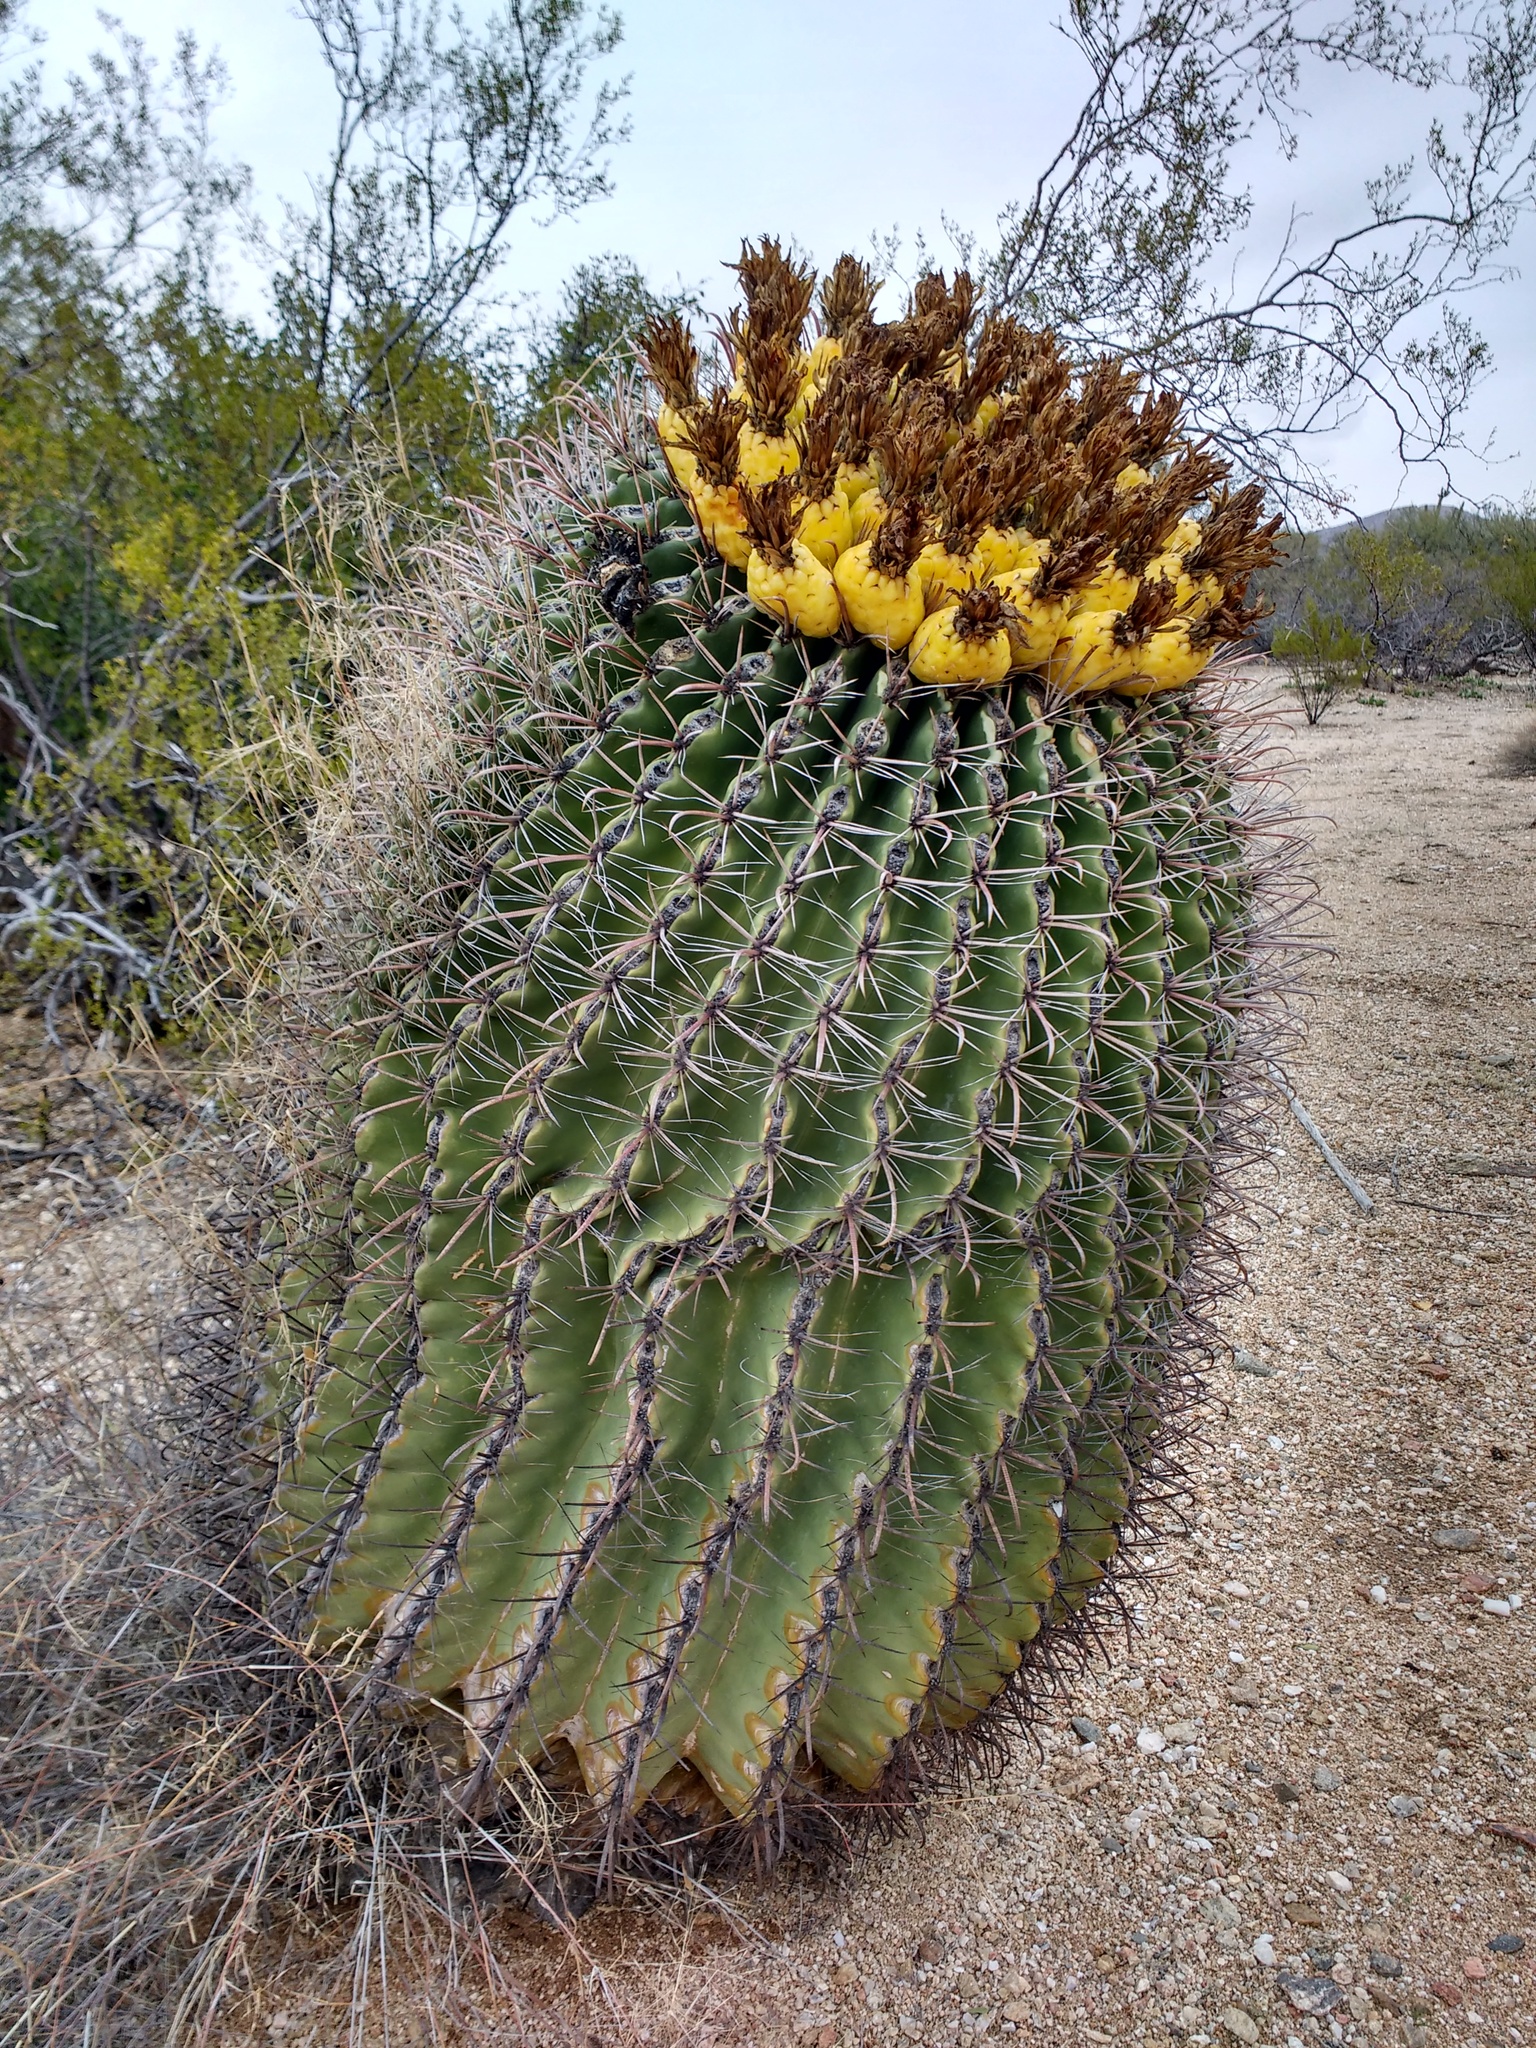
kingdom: Plantae
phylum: Tracheophyta
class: Magnoliopsida
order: Caryophyllales
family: Cactaceae
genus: Ferocactus
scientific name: Ferocactus wislizeni
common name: Candy barrel cactus
